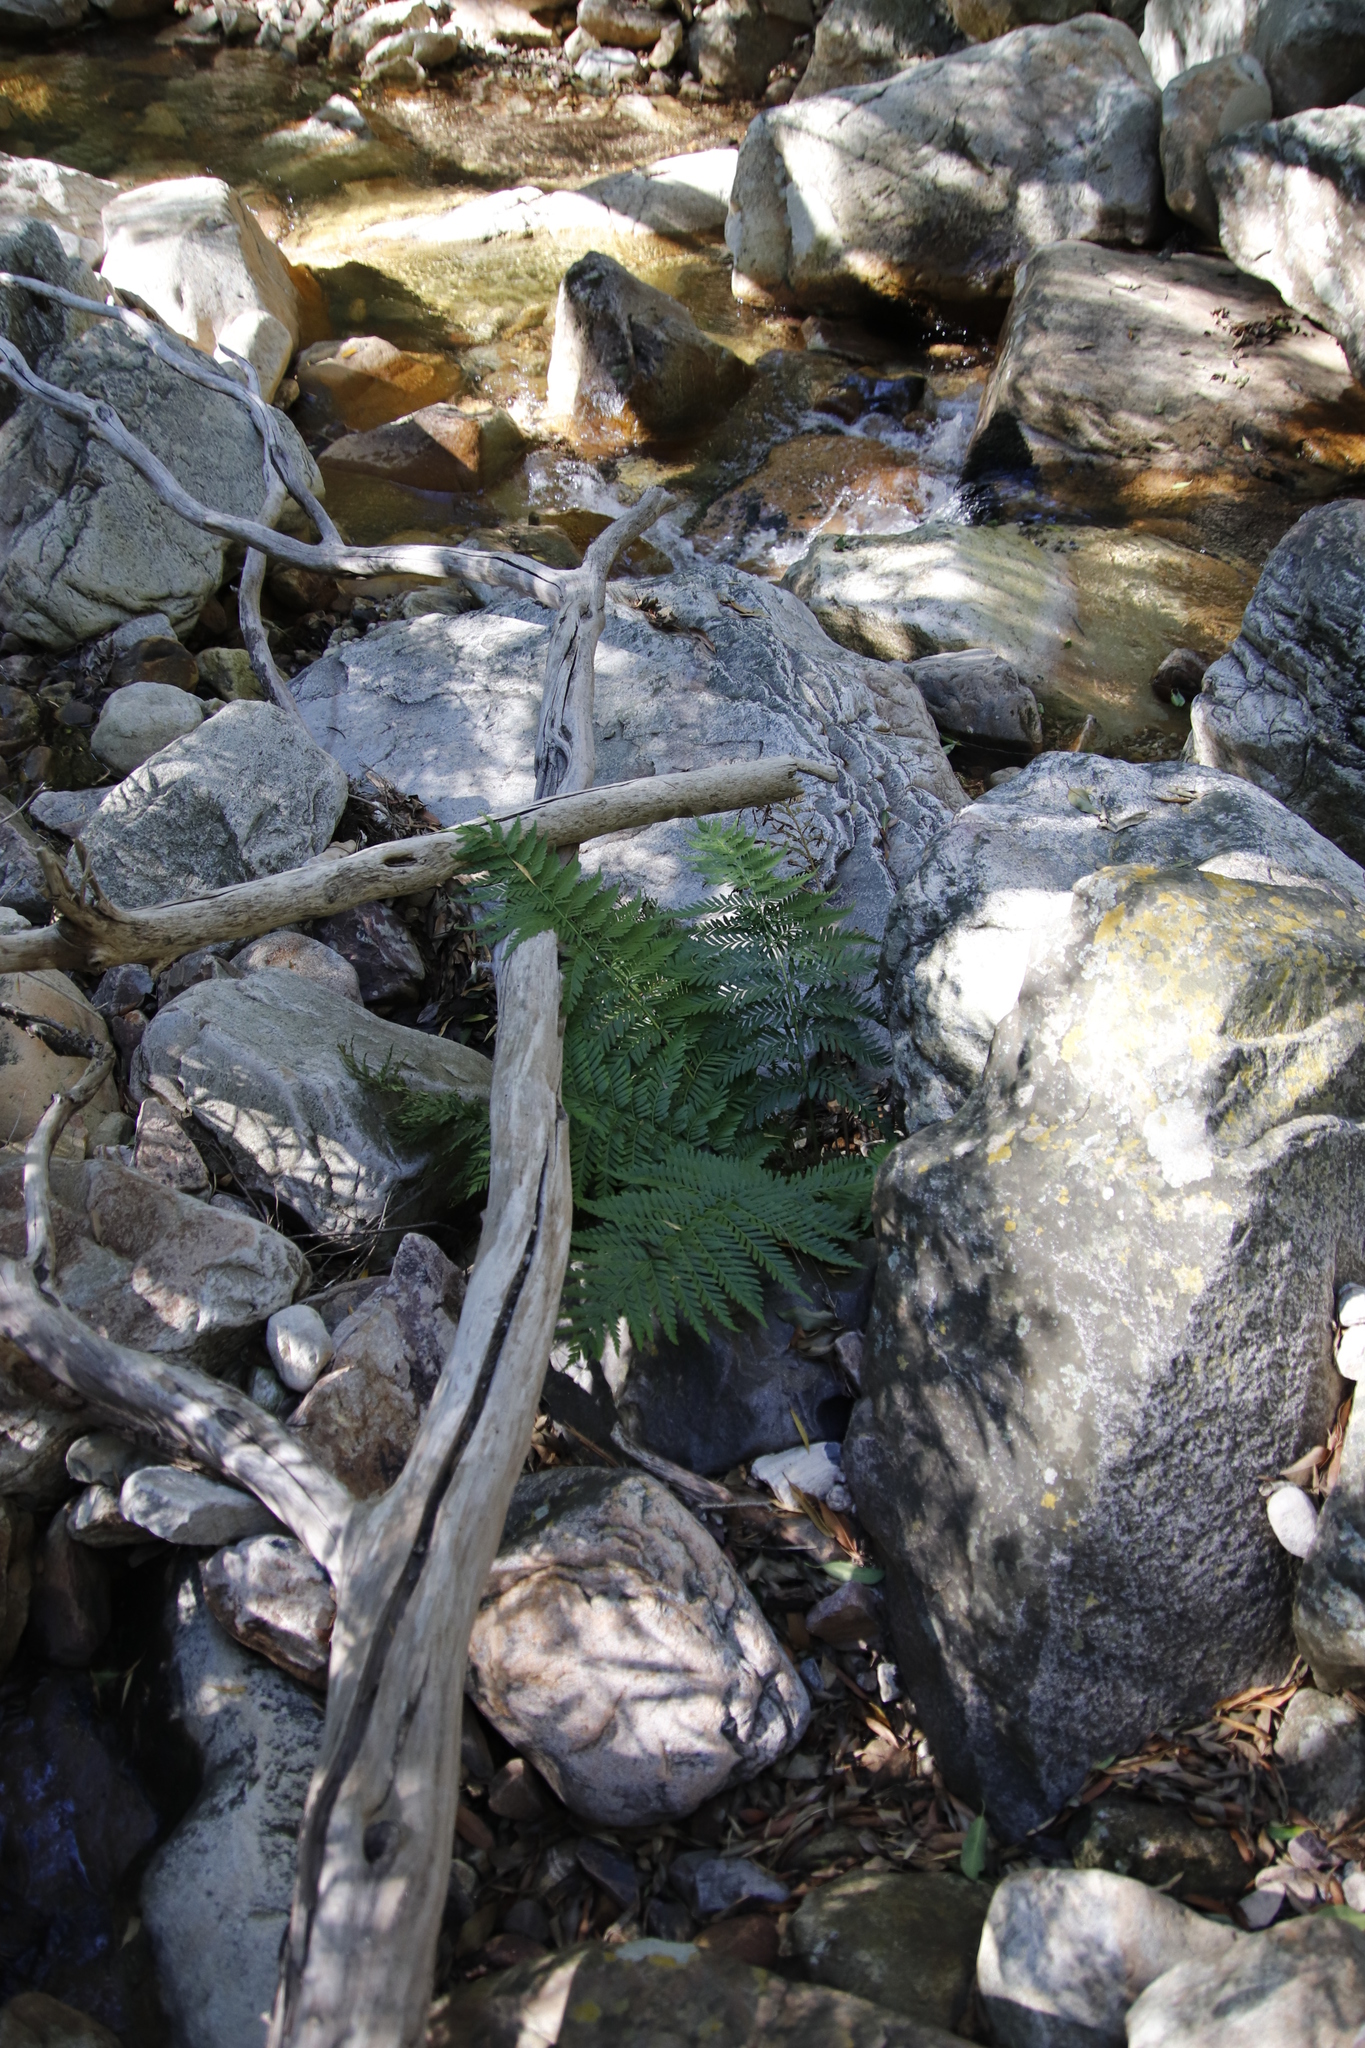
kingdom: Plantae
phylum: Tracheophyta
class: Polypodiopsida
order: Osmundales
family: Osmundaceae
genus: Todea
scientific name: Todea barbara
